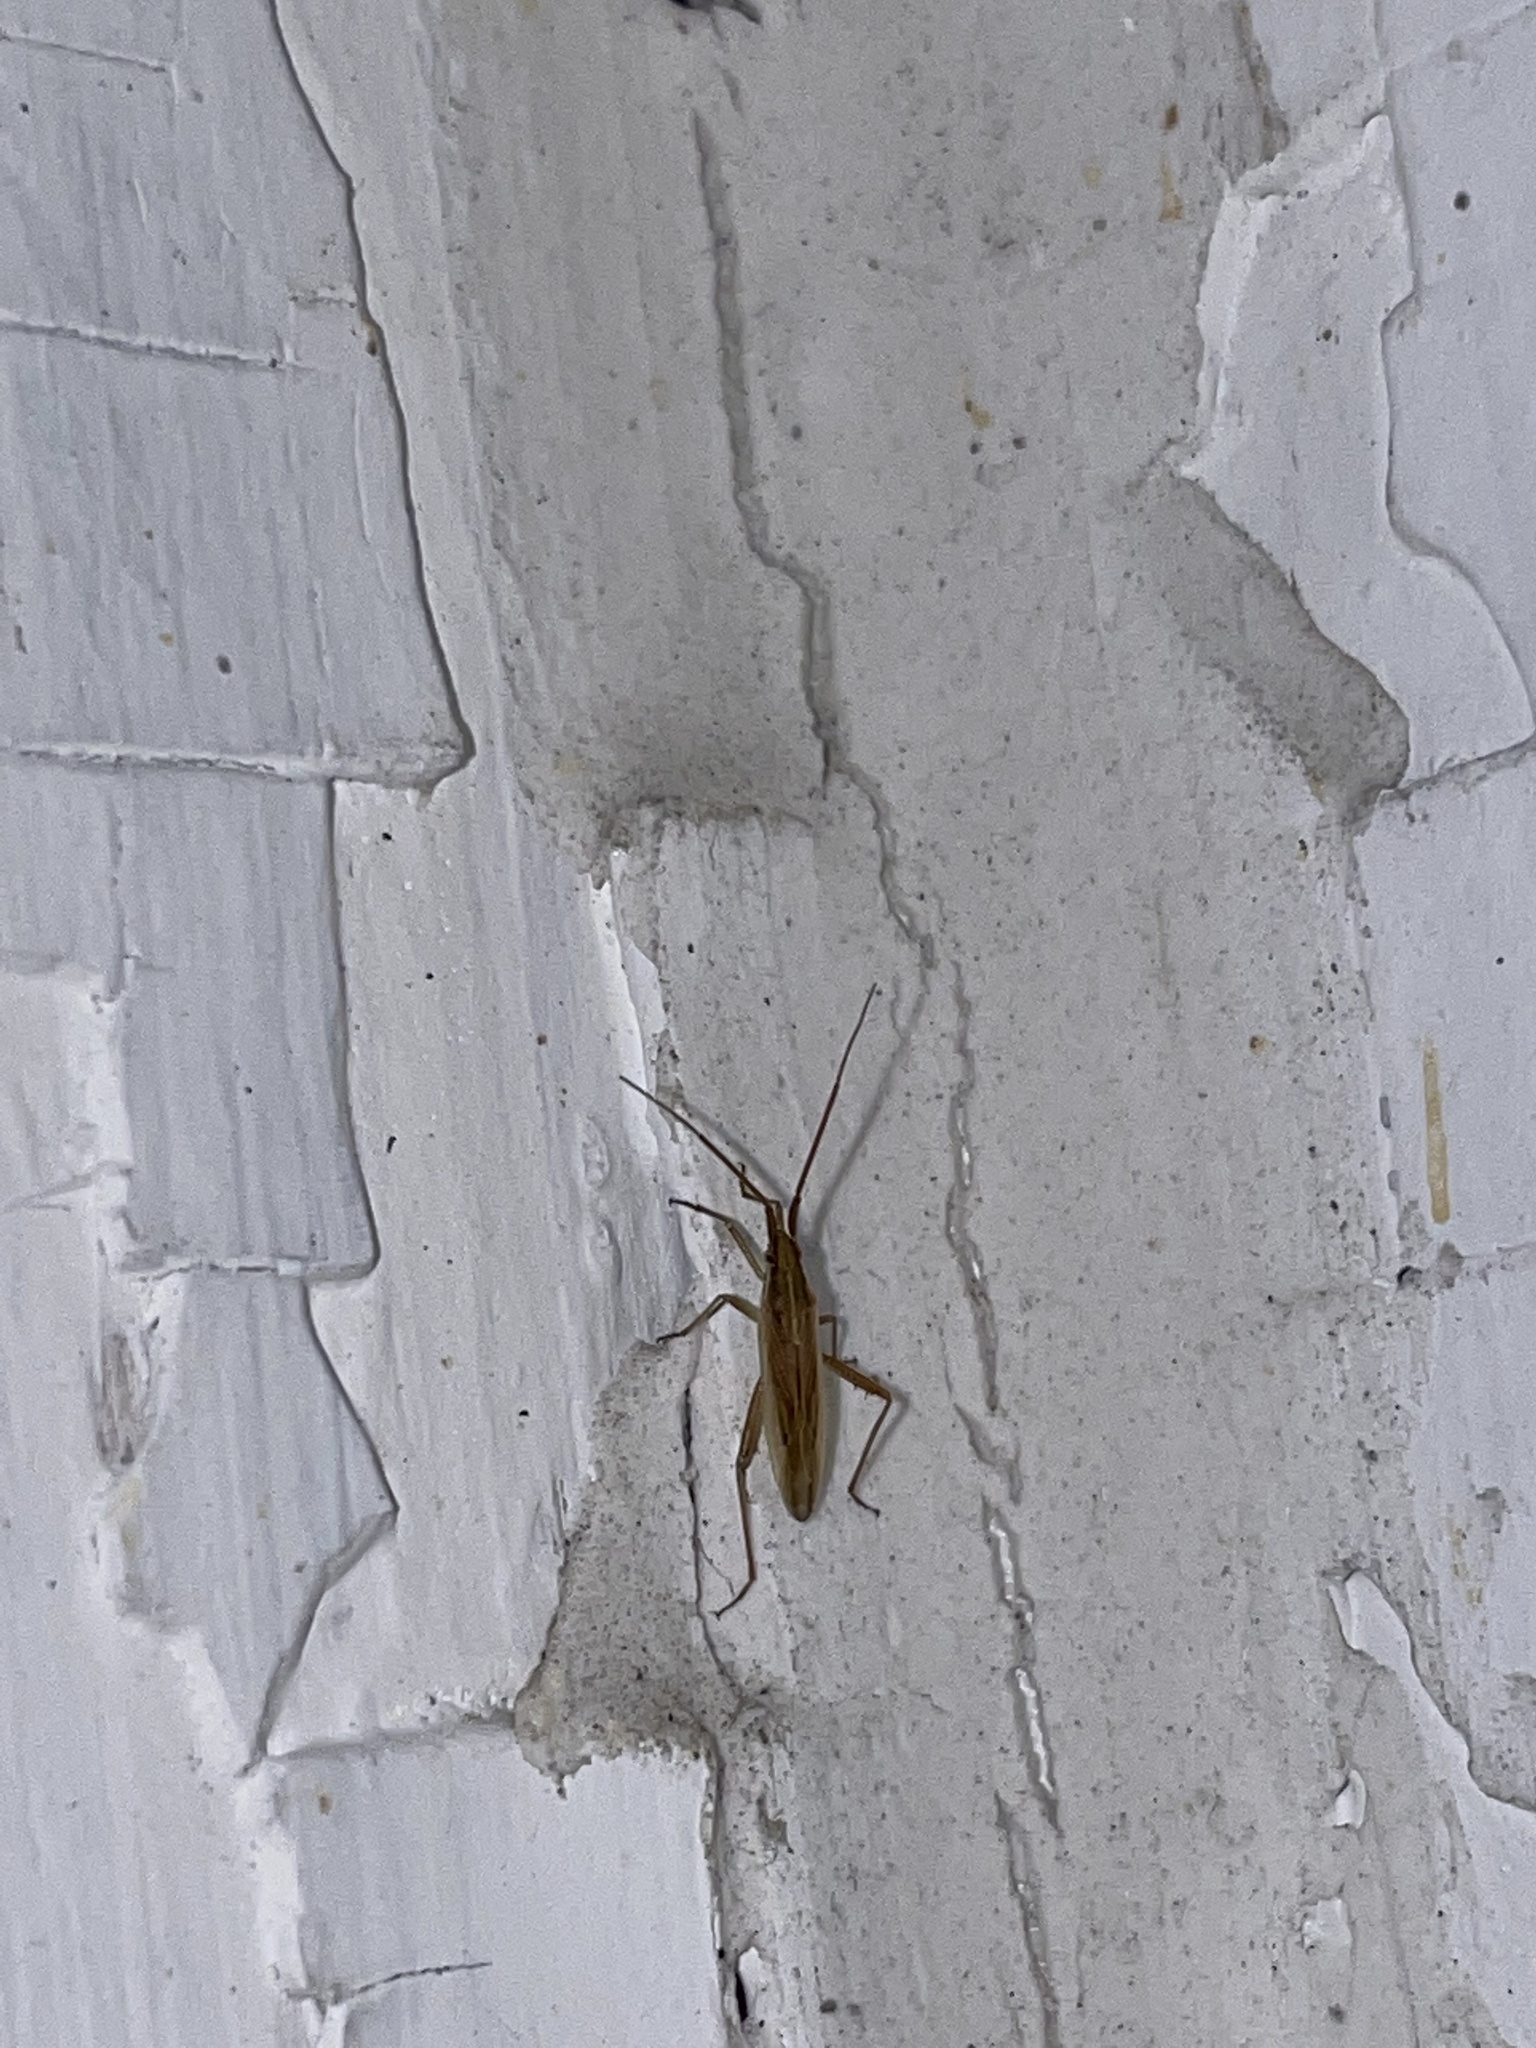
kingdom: Animalia
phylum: Arthropoda
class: Insecta
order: Hemiptera
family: Miridae
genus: Stenodema
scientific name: Stenodema trispinosa
